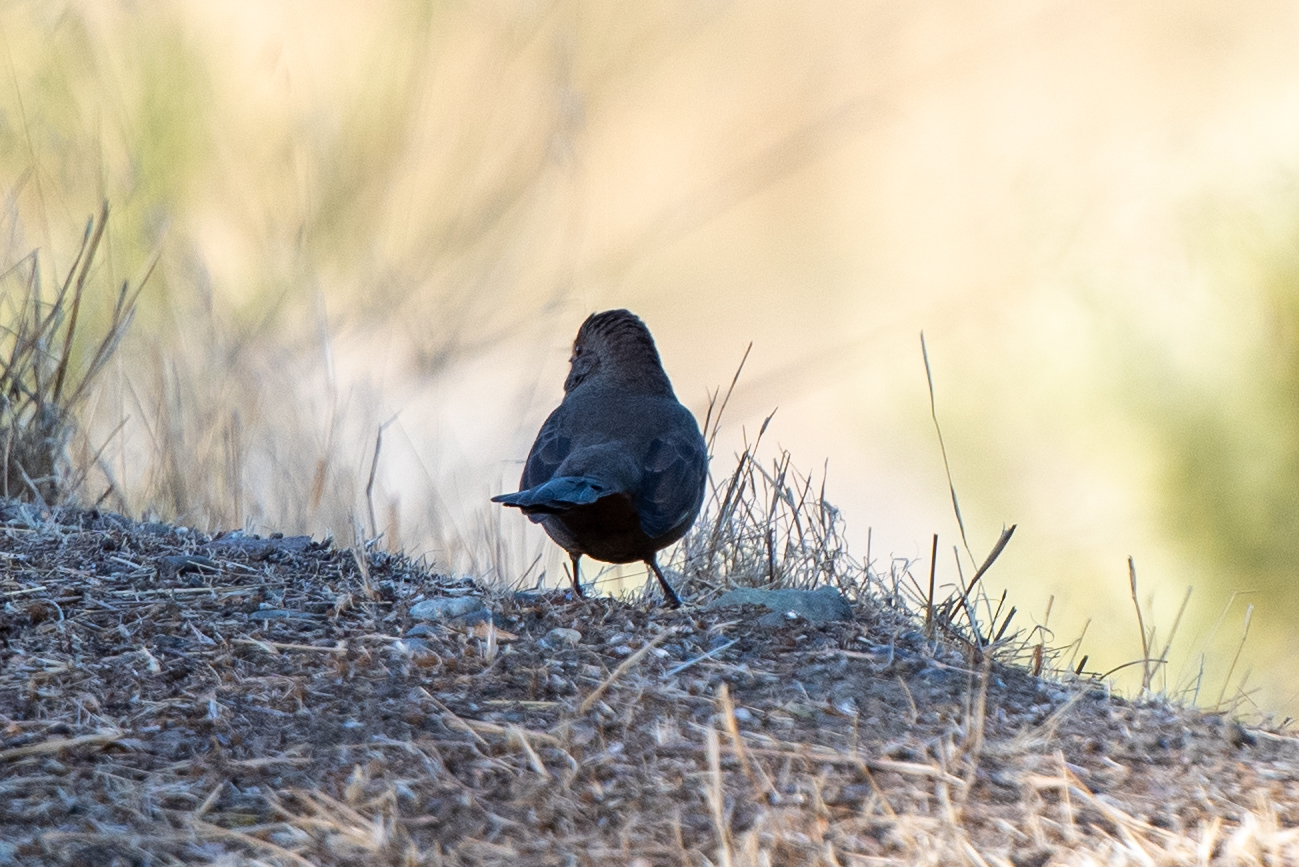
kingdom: Animalia
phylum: Chordata
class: Aves
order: Passeriformes
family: Passerellidae
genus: Melozone
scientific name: Melozone crissalis
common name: California towhee
